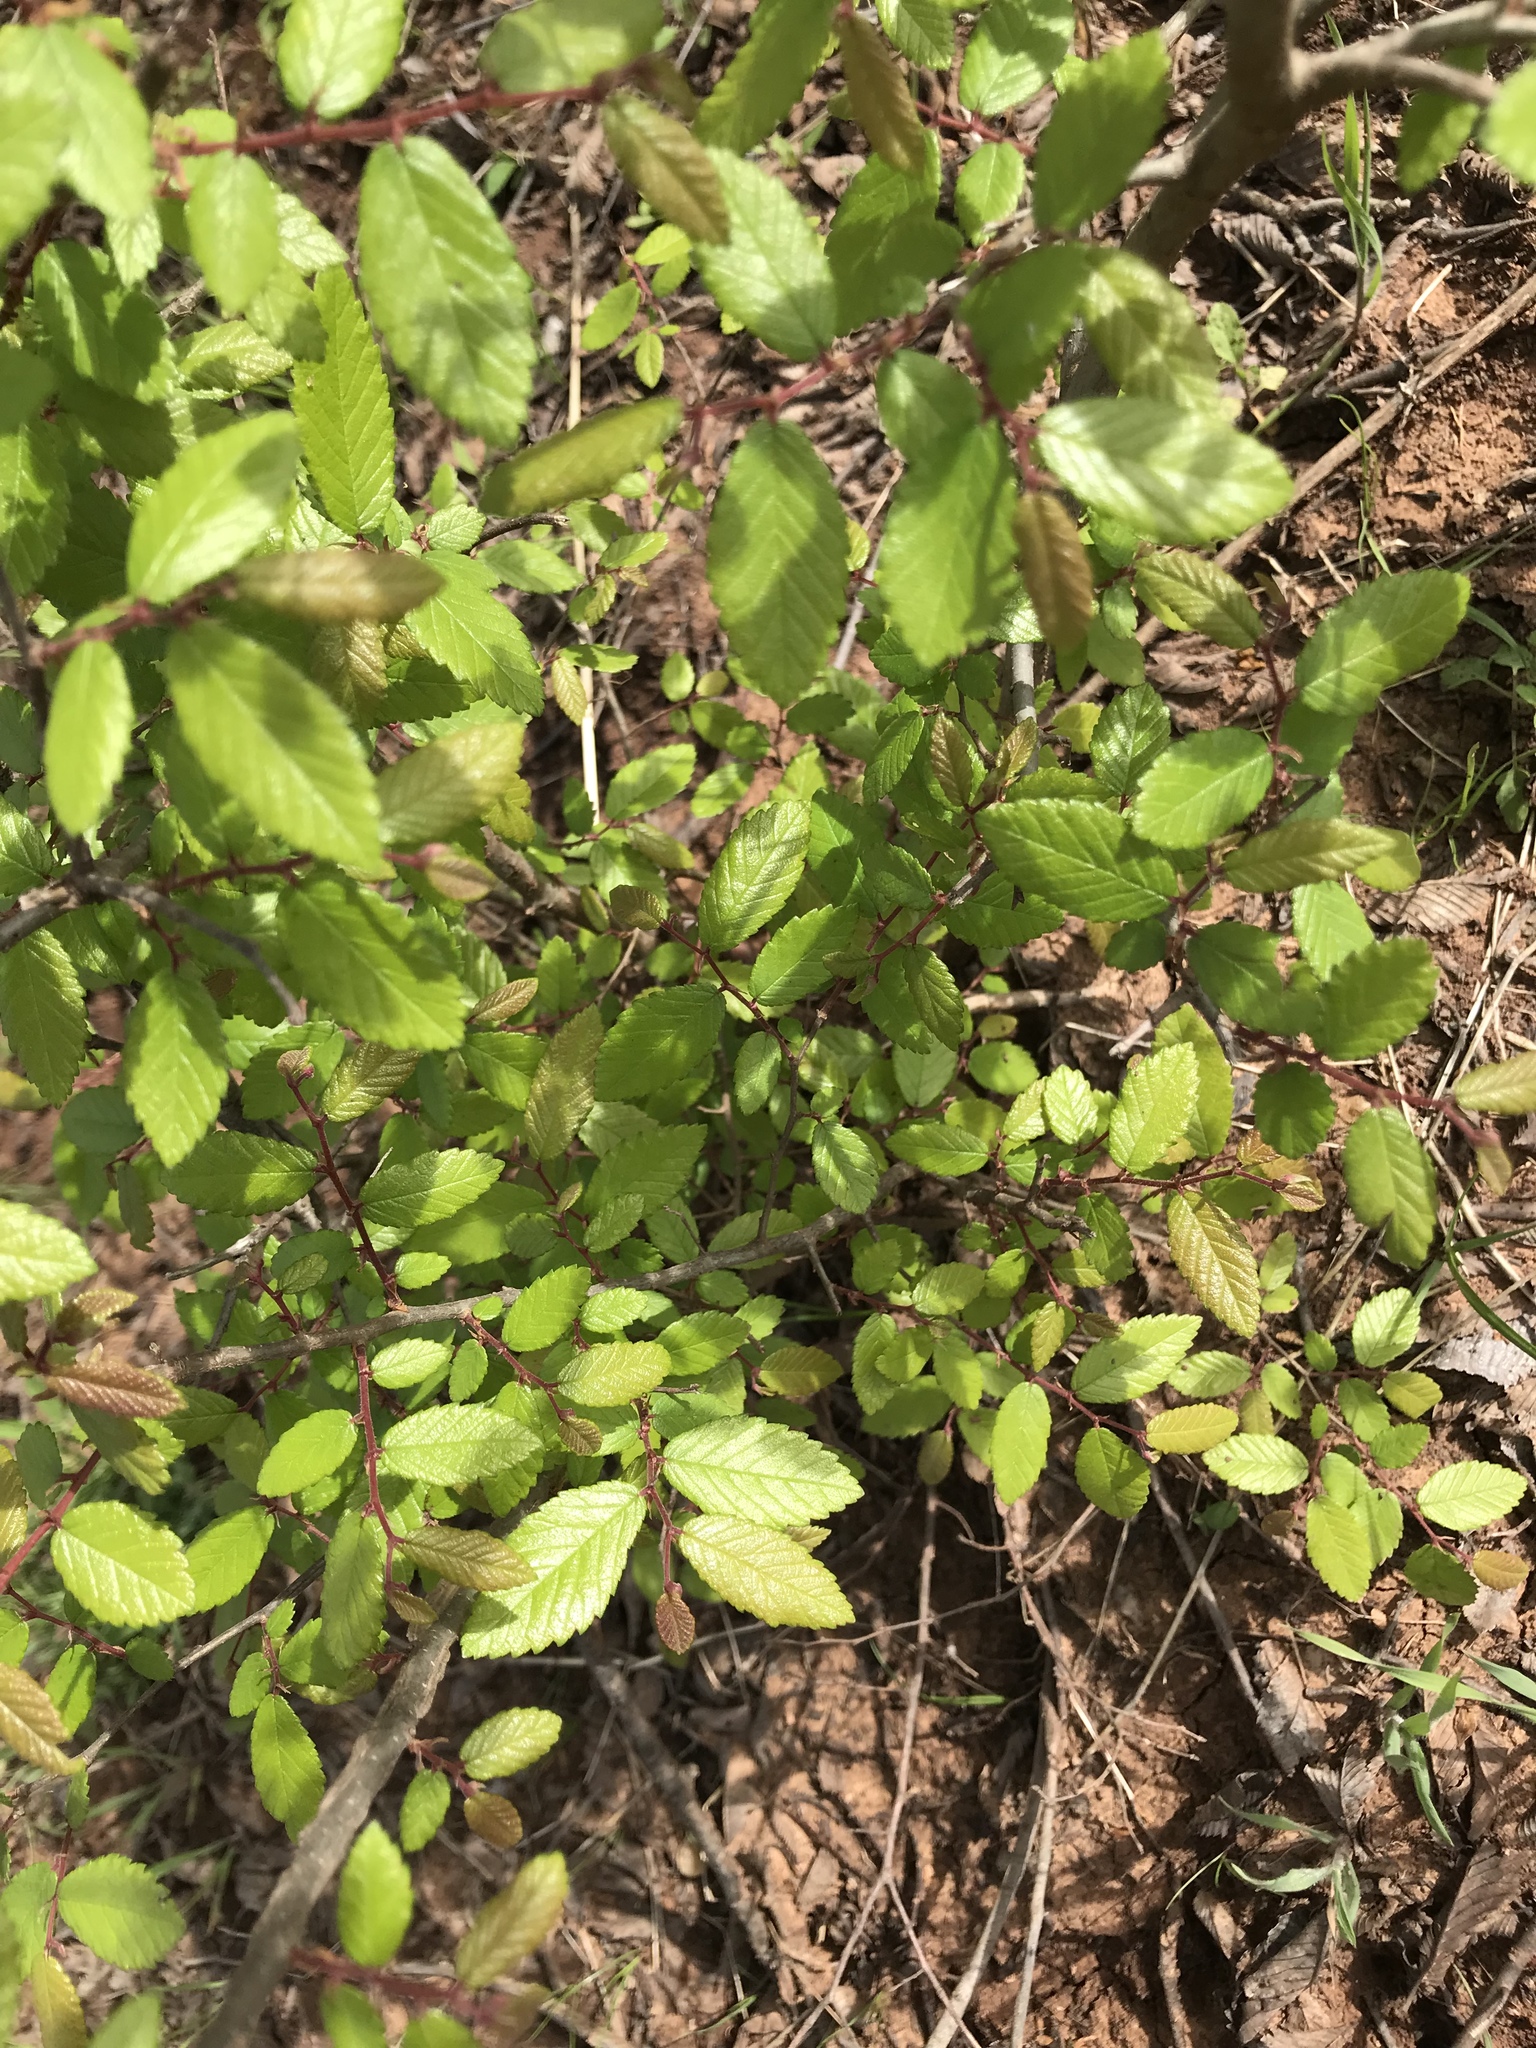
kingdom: Plantae
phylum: Tracheophyta
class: Magnoliopsida
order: Rosales
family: Ulmaceae
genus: Ulmus
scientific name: Ulmus crassifolia
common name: Basket elm
